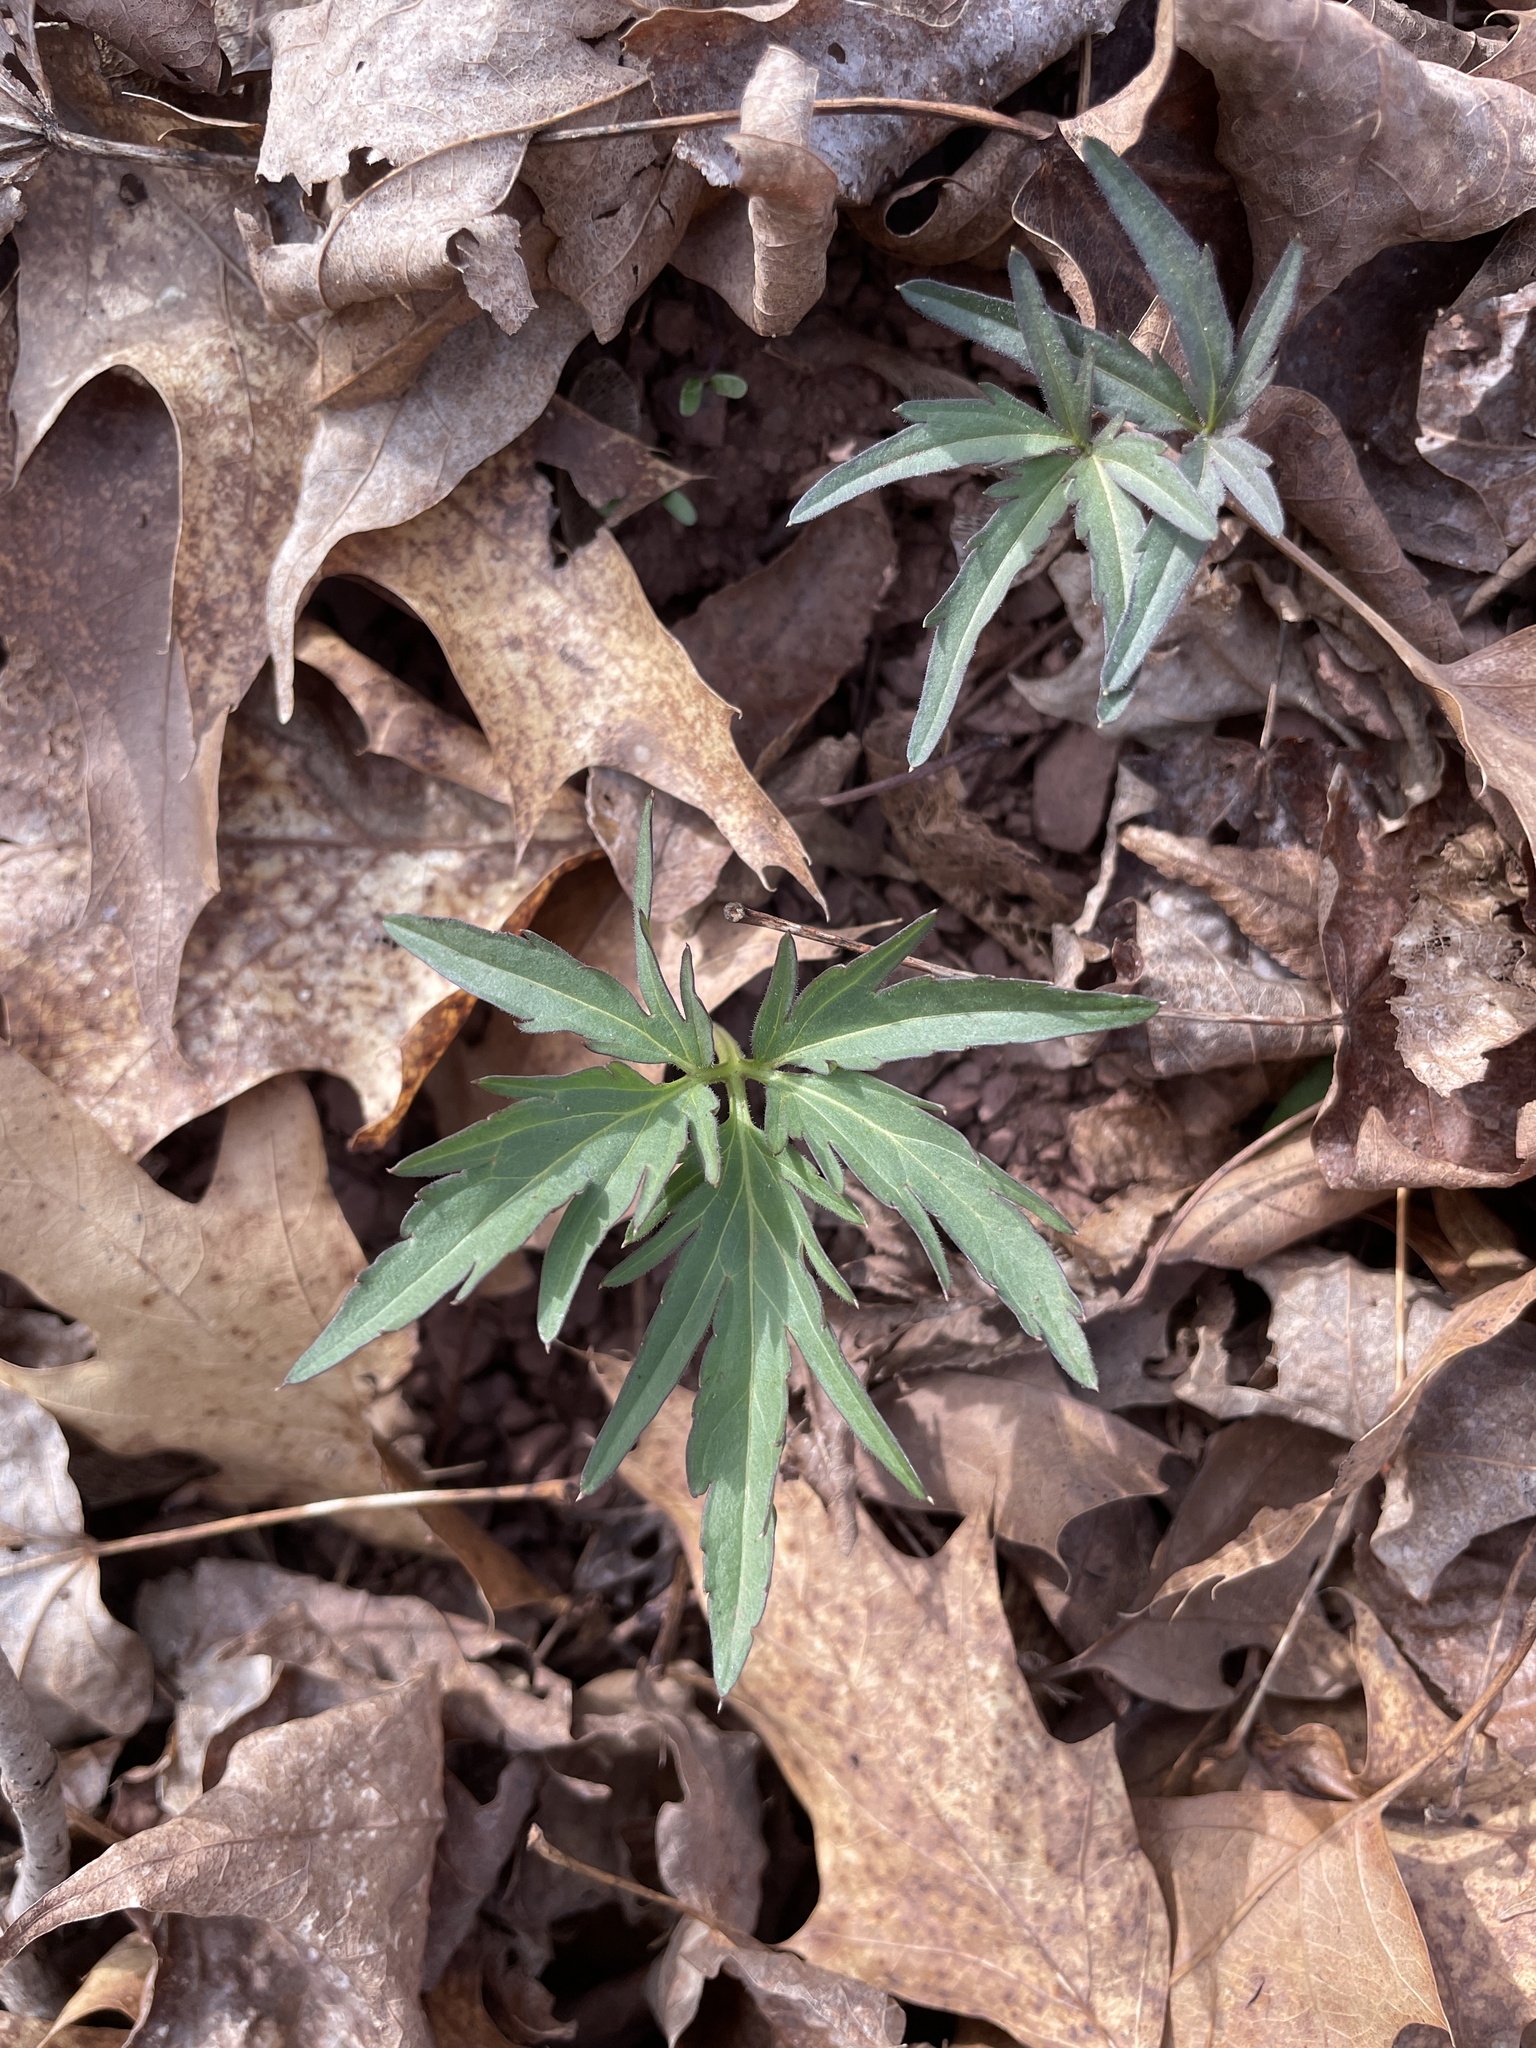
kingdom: Plantae
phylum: Tracheophyta
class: Magnoliopsida
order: Brassicales
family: Brassicaceae
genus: Cardamine
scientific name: Cardamine concatenata
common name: Cut-leaf toothcup
